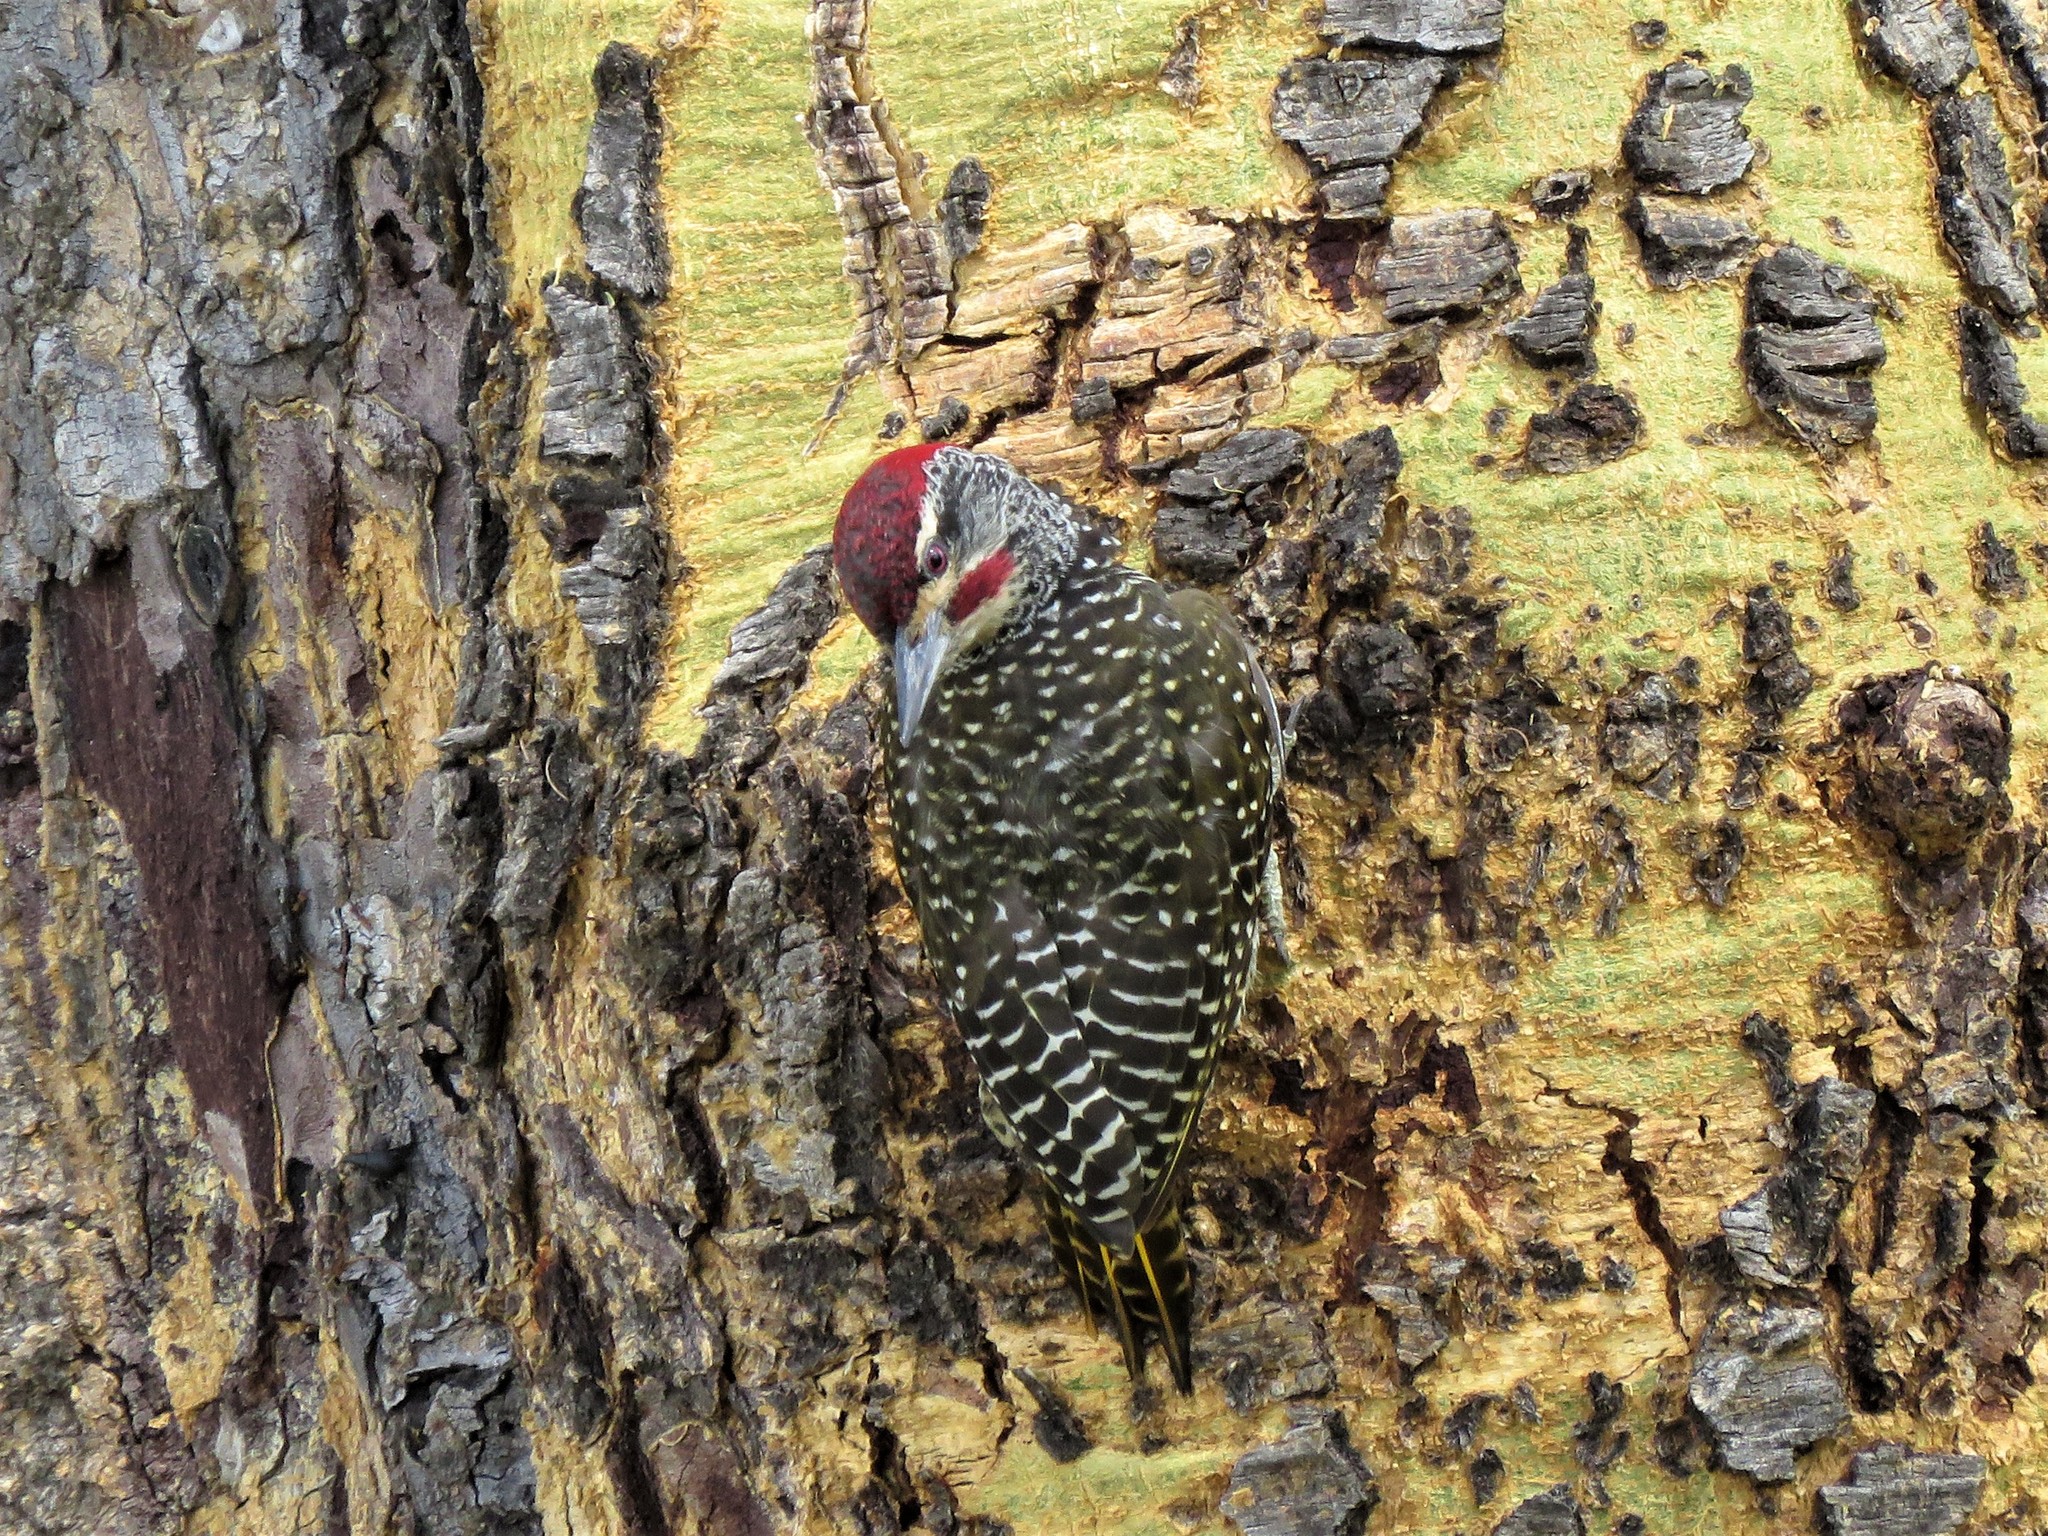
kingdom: Animalia
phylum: Chordata
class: Aves
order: Piciformes
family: Picidae
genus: Campethera
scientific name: Campethera nubica
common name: Nubian woodpecker
